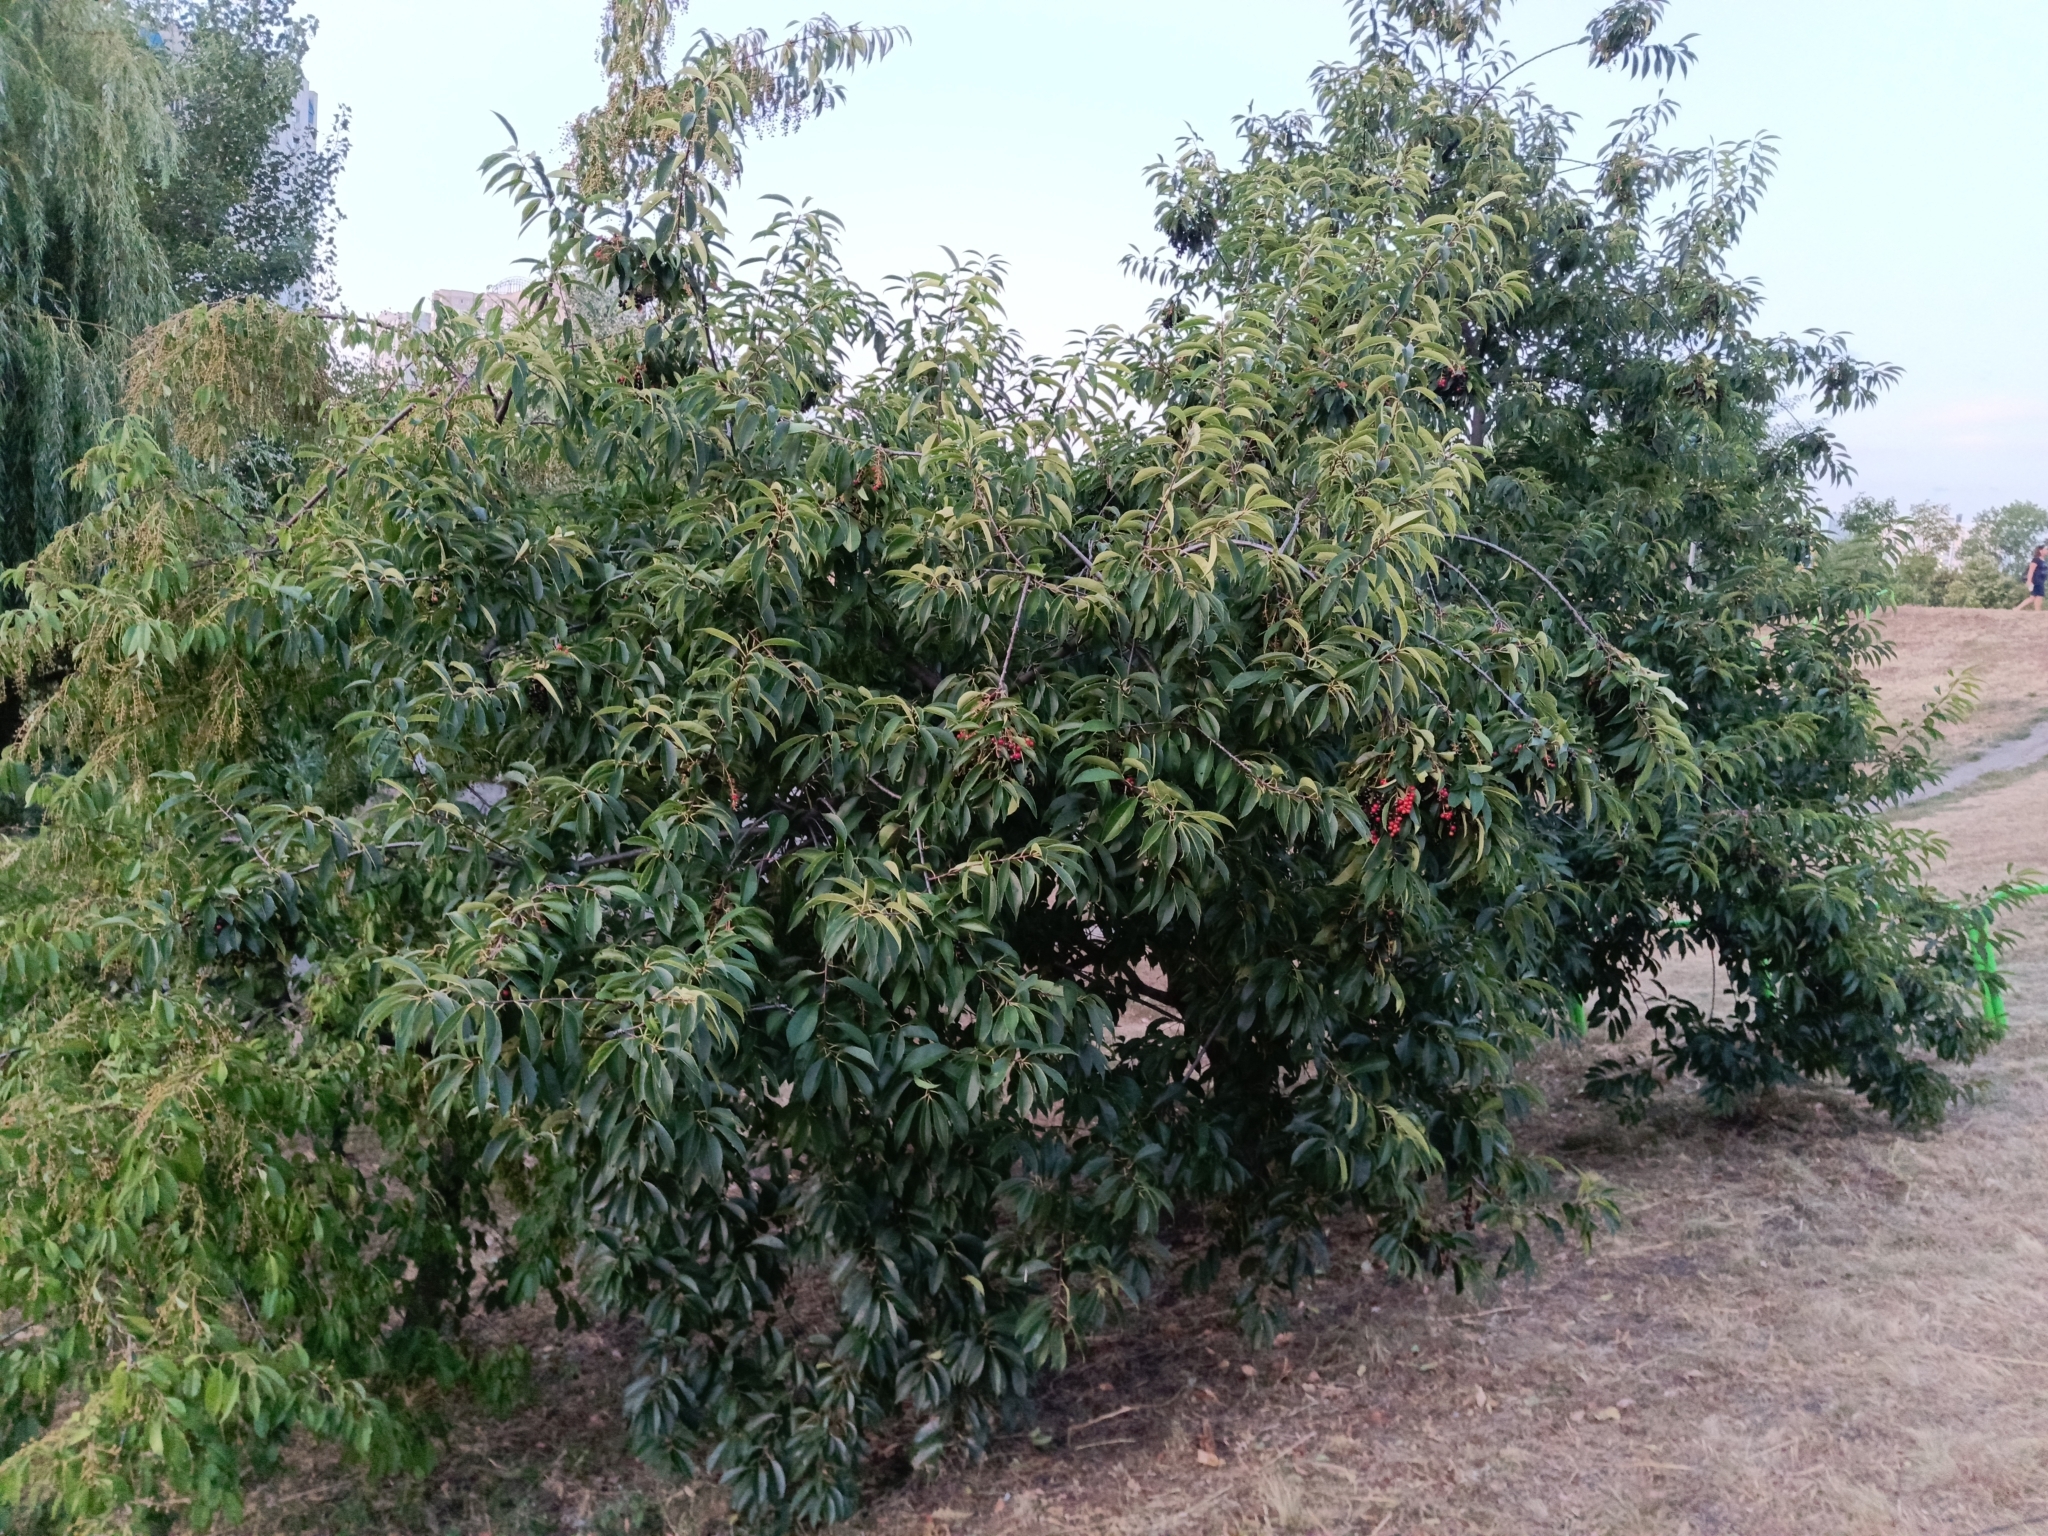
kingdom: Plantae
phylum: Tracheophyta
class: Magnoliopsida
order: Rosales
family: Rosaceae
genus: Prunus
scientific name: Prunus serotina
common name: Black cherry
